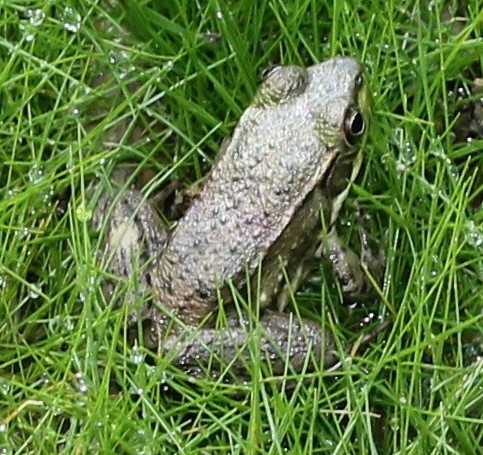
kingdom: Animalia
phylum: Chordata
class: Amphibia
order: Anura
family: Ranidae
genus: Lithobates
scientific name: Lithobates clamitans
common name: Green frog
